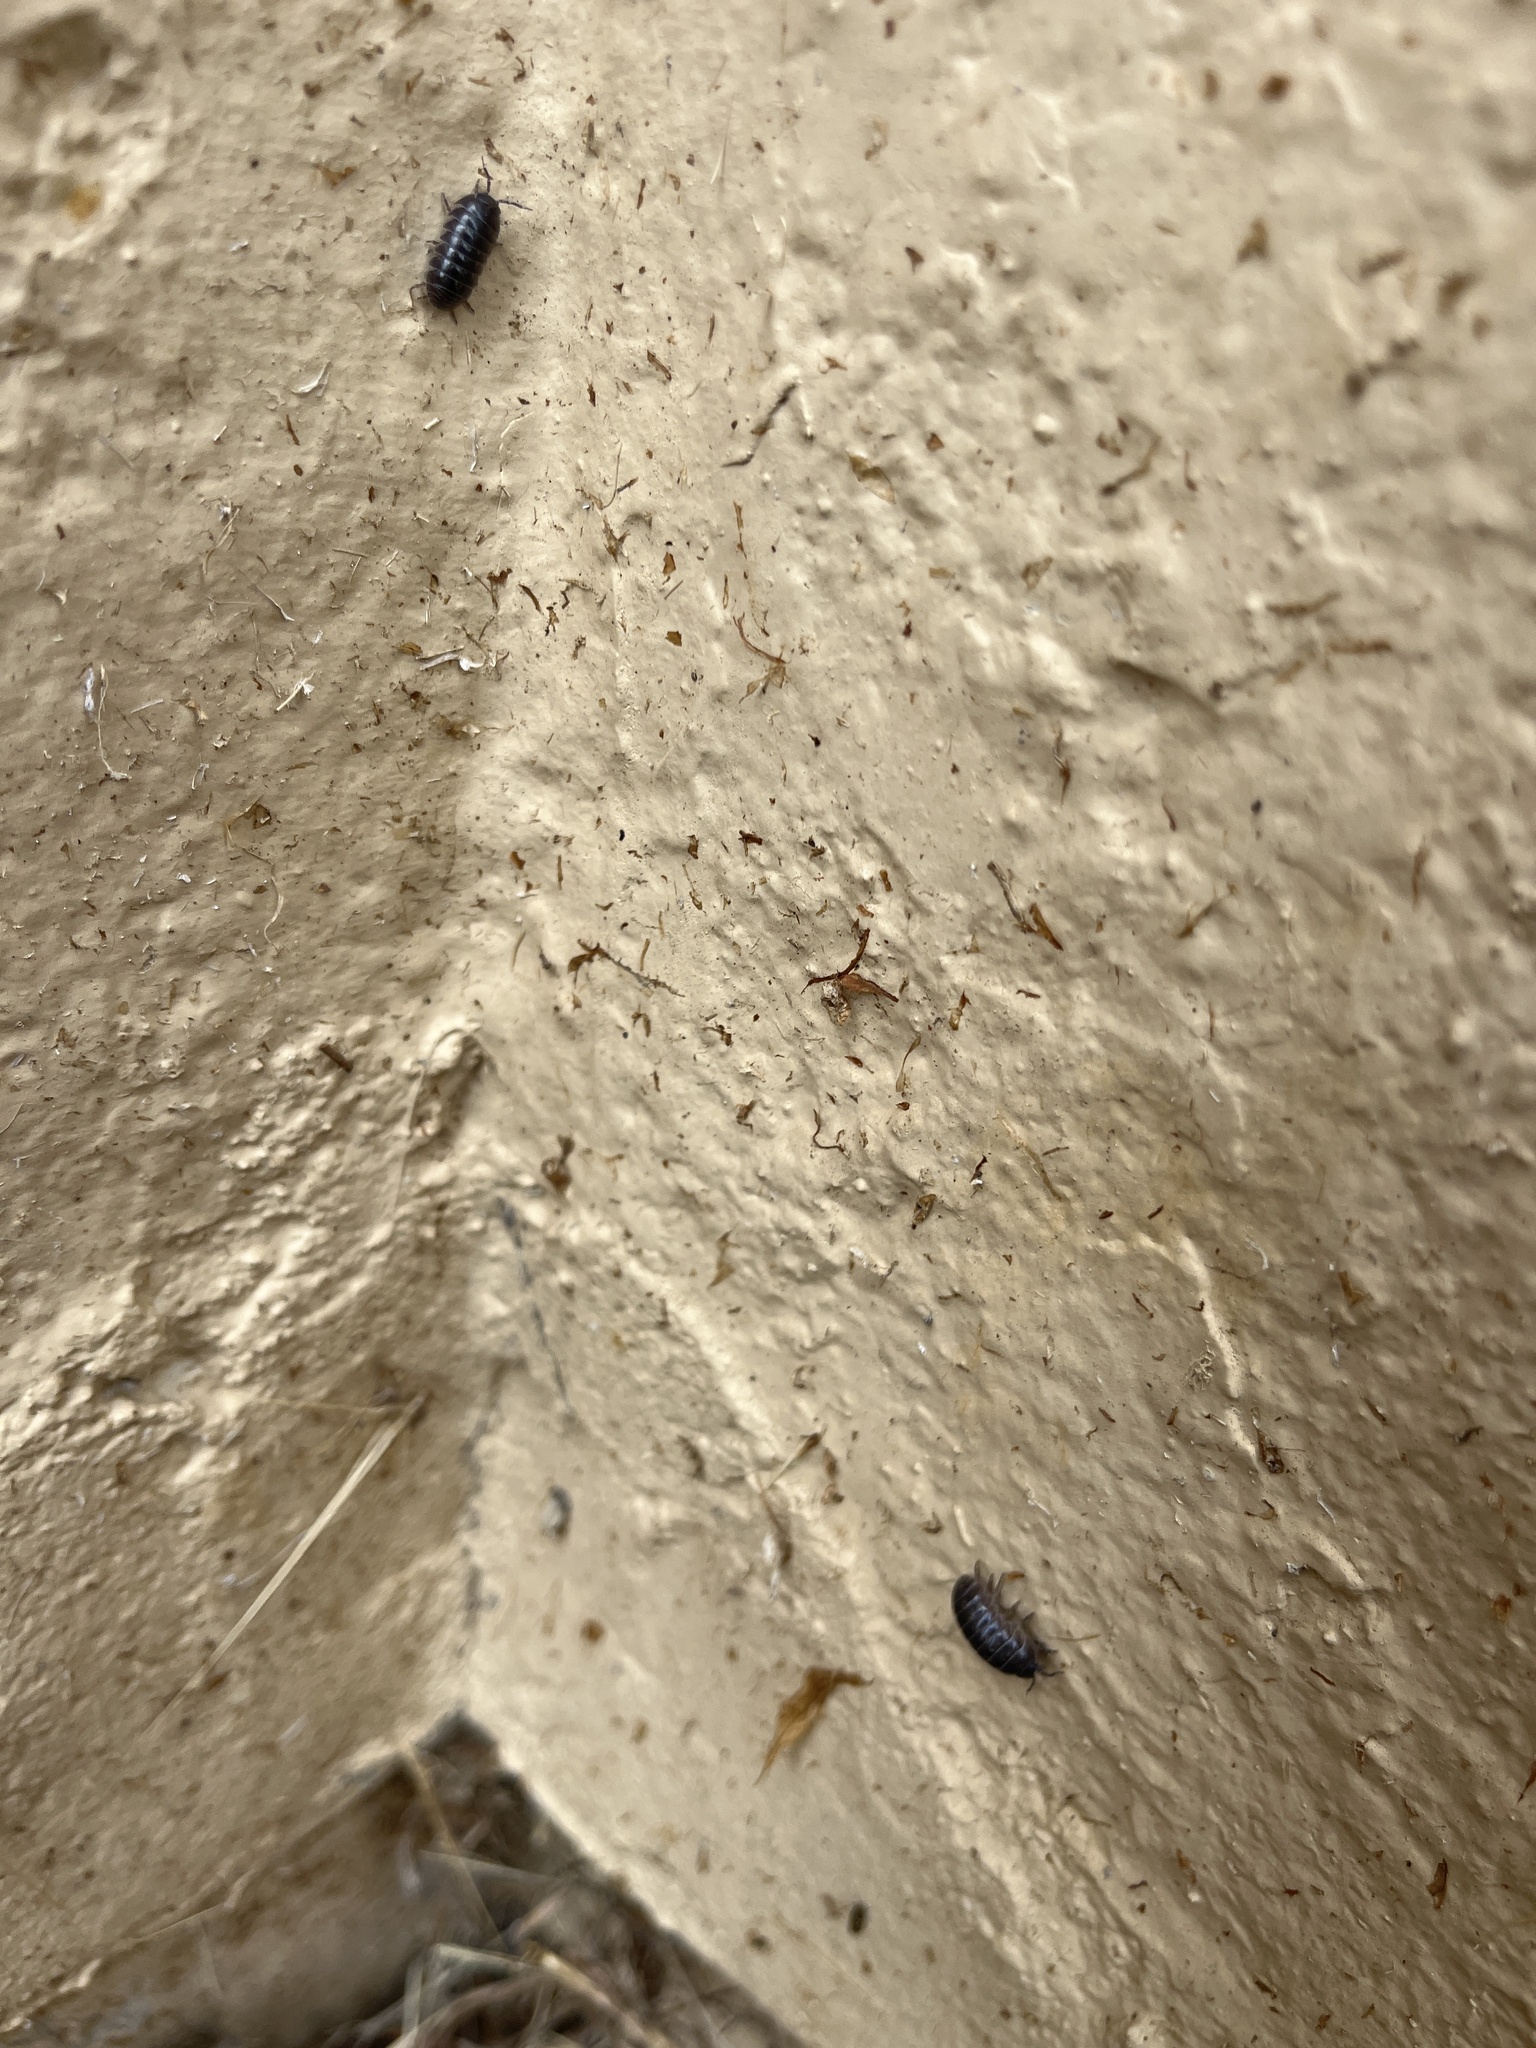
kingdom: Animalia
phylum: Arthropoda
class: Malacostraca
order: Isopoda
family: Armadillidiidae
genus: Armadillidium
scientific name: Armadillidium vulgare
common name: Common pill woodlouse
